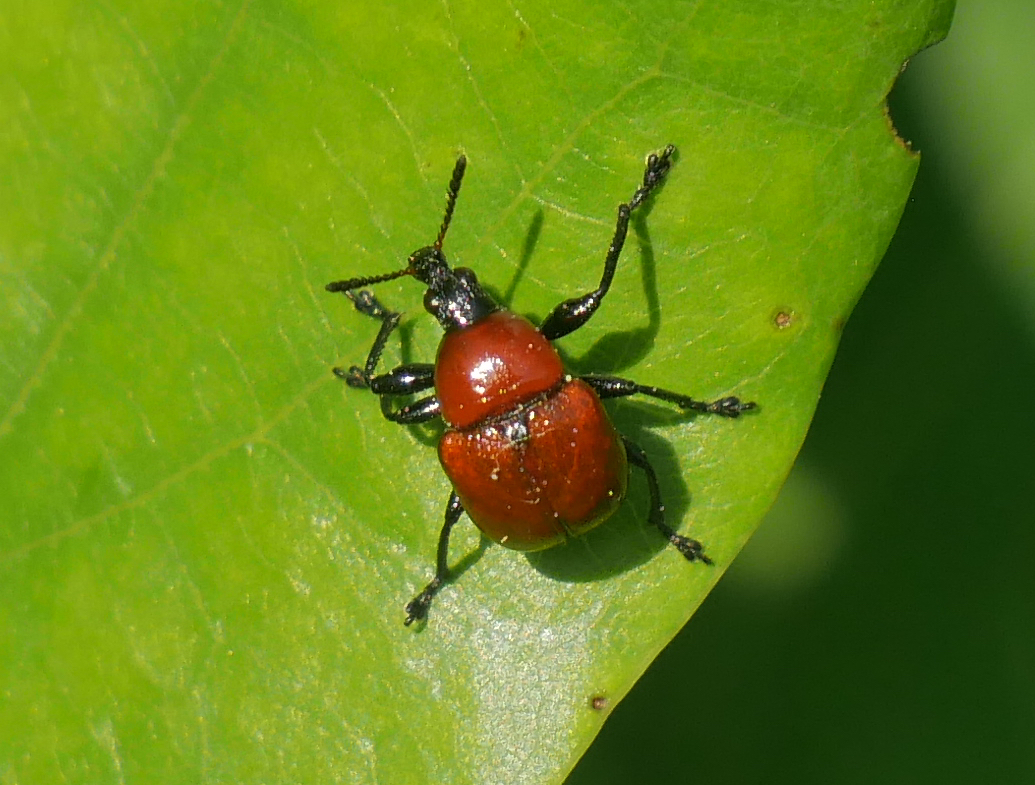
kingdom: Animalia
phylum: Arthropoda
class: Insecta
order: Coleoptera
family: Attelabidae
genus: Attelabus
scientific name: Attelabus nitens
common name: Oak leaf-roller
